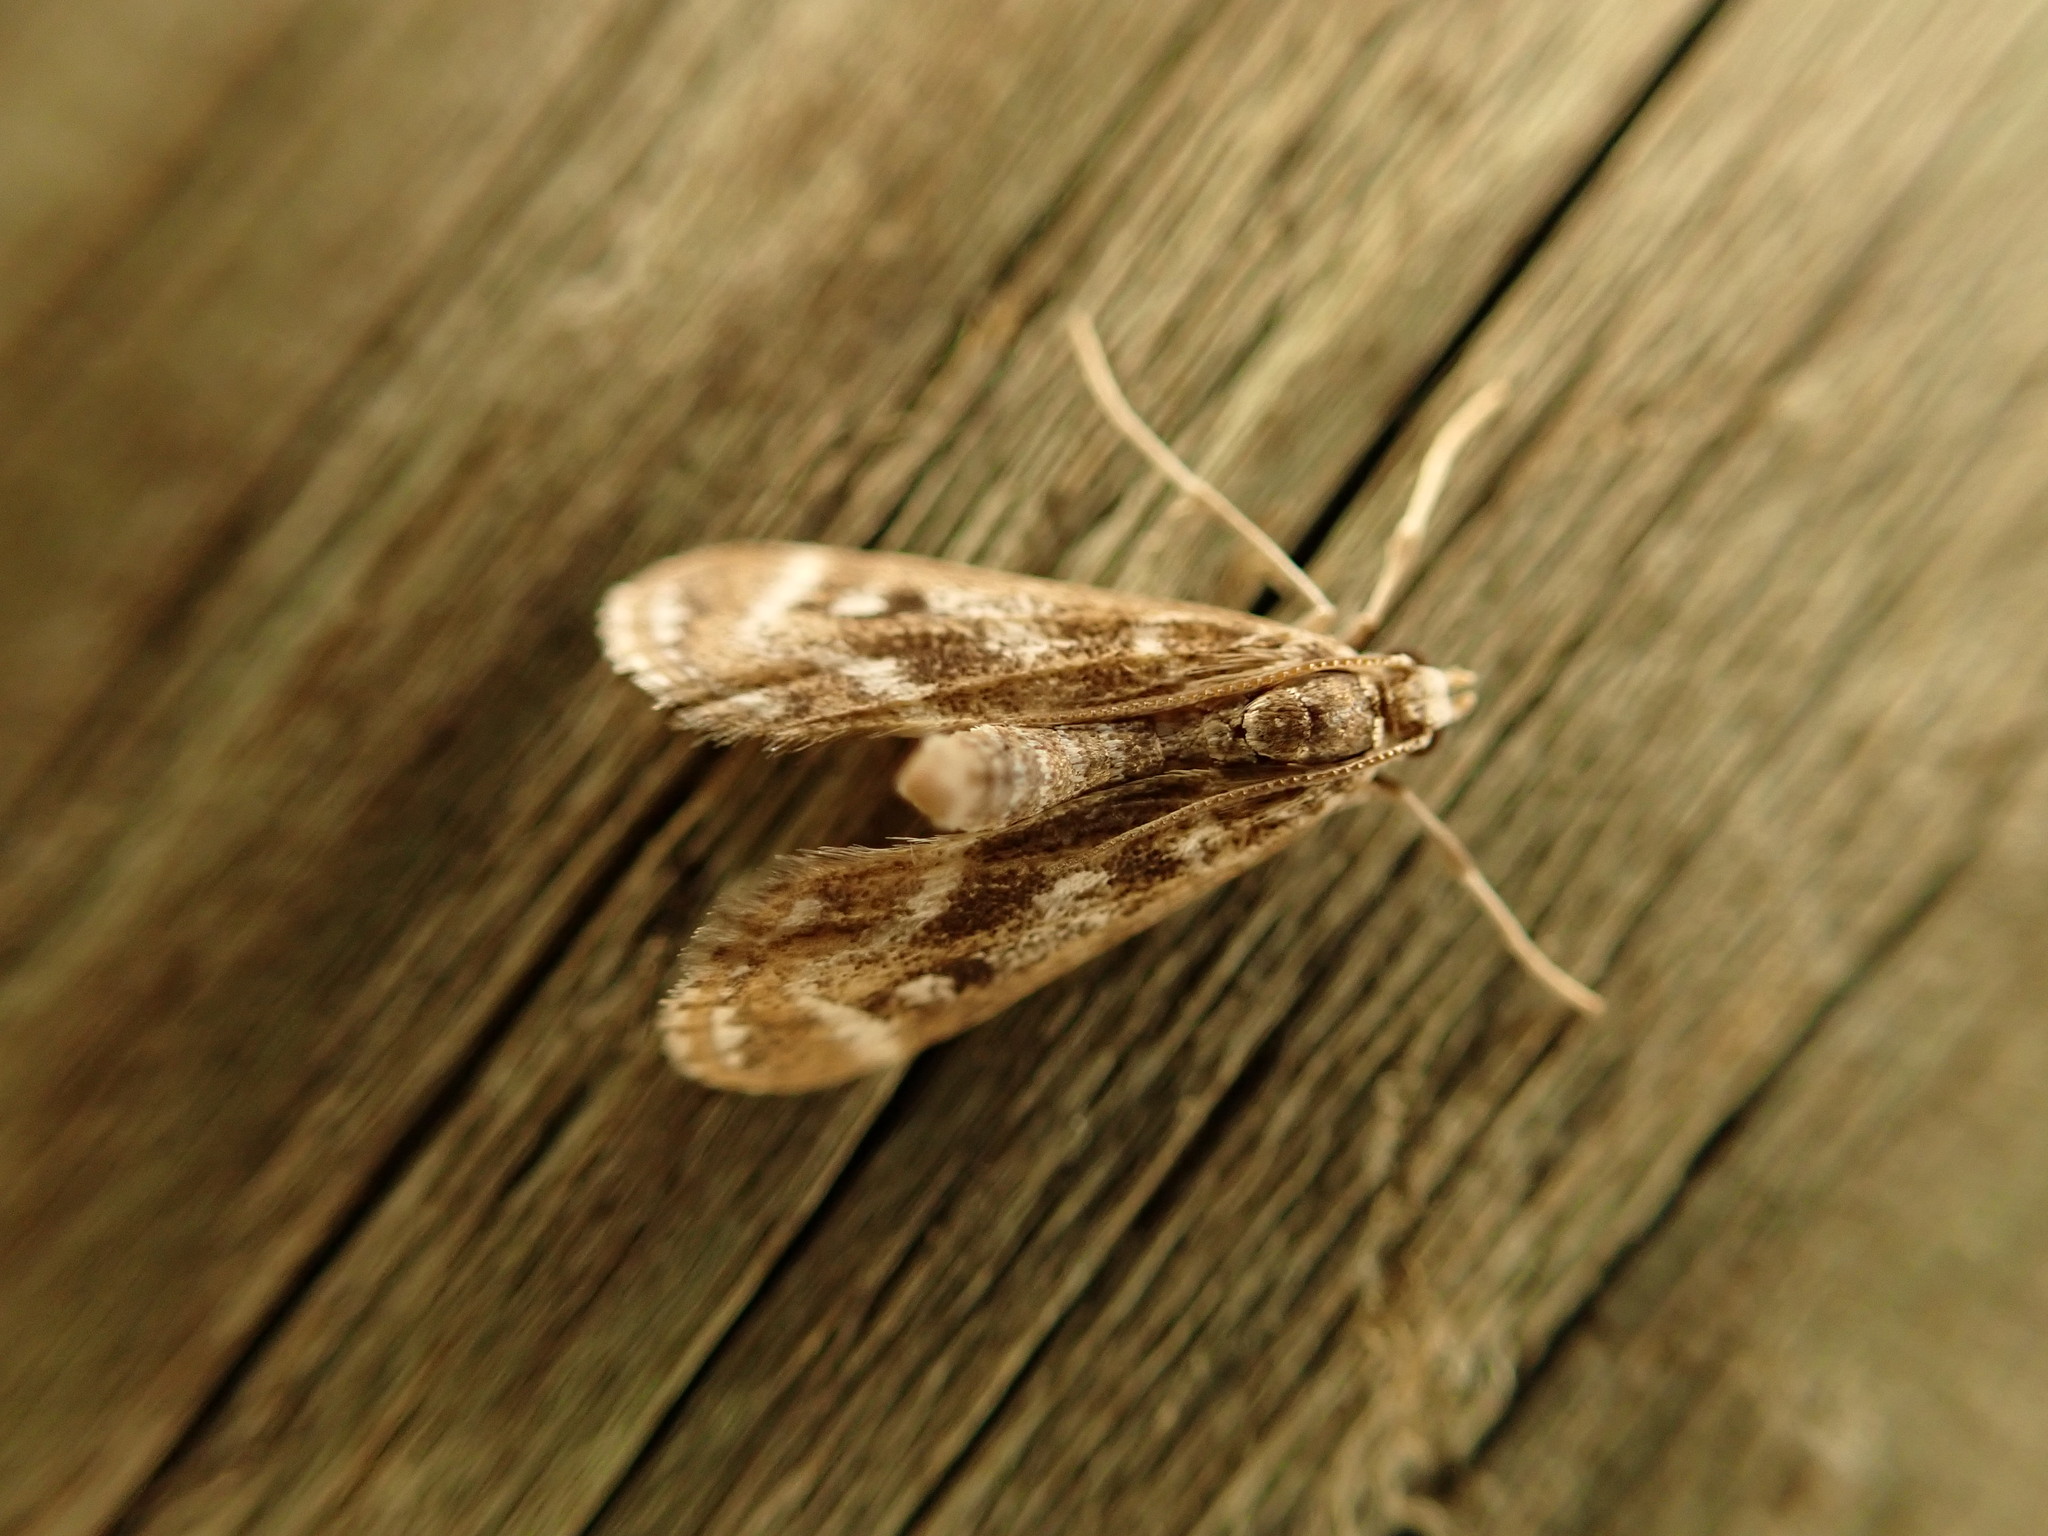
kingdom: Animalia
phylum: Arthropoda
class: Insecta
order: Lepidoptera
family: Crambidae
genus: Hygraula
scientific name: Hygraula nitens
